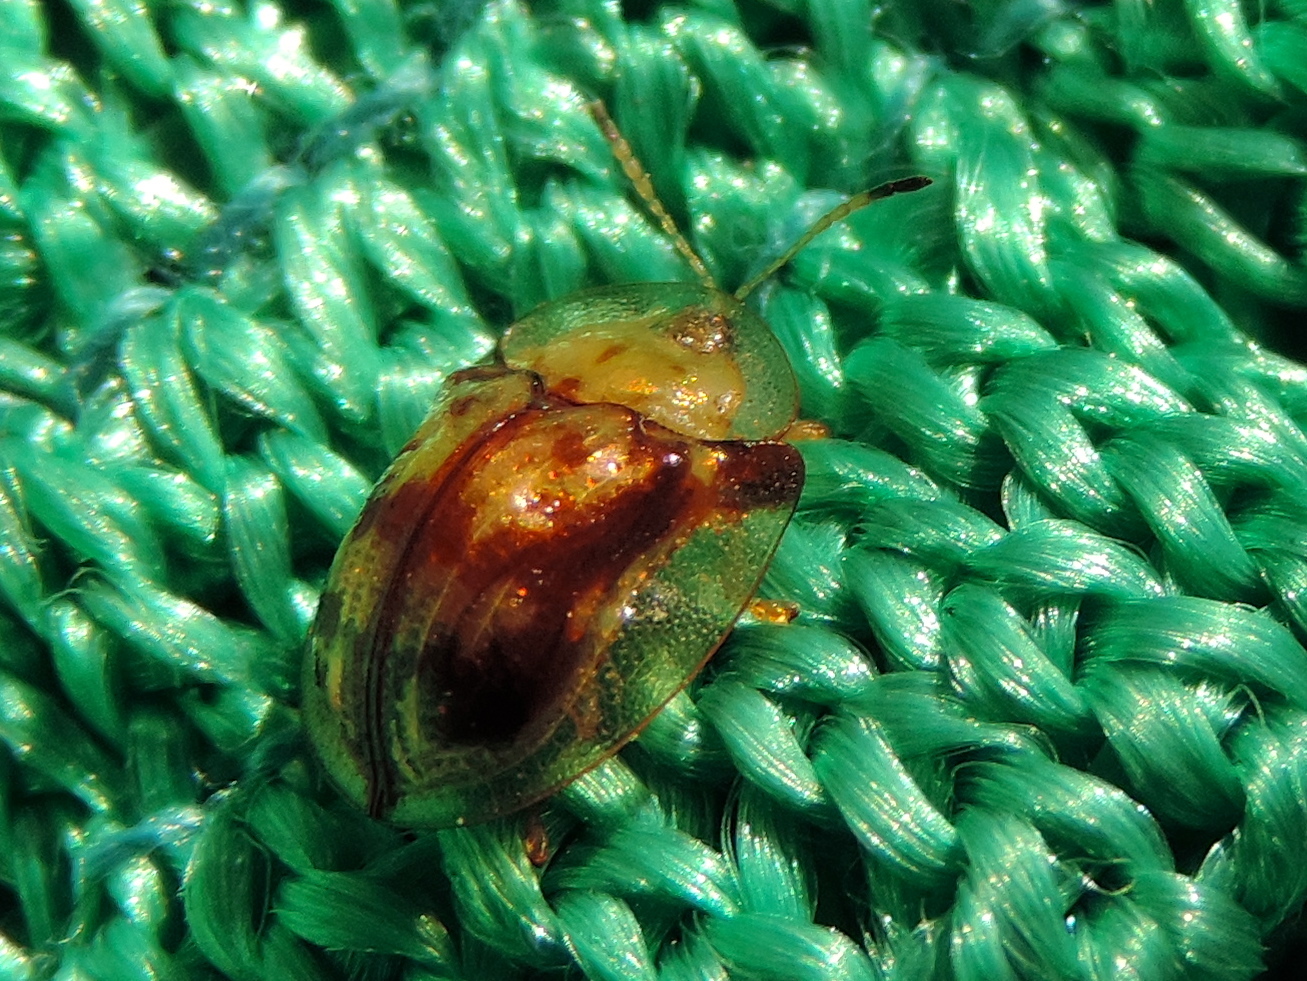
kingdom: Animalia
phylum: Arthropoda
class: Insecta
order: Coleoptera
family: Chrysomelidae
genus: Deloyala
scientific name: Deloyala lecontei
